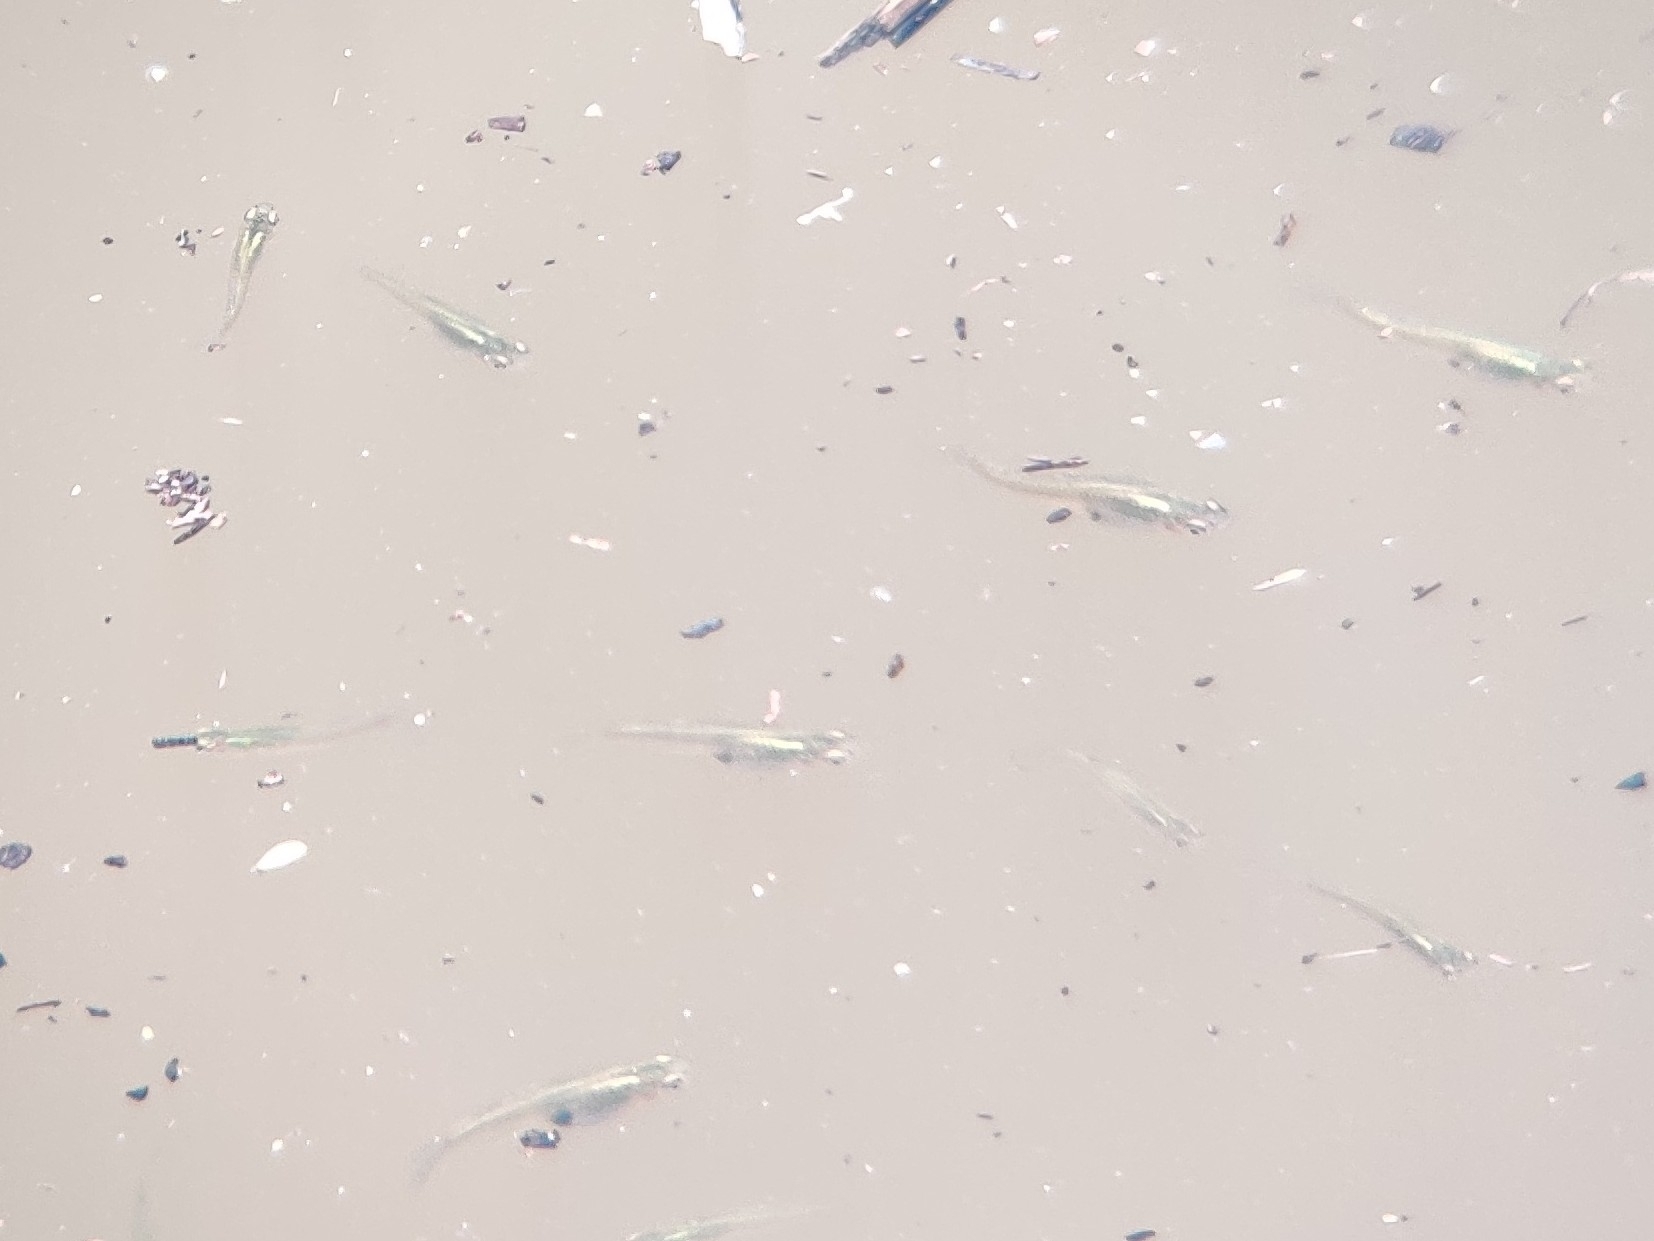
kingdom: Animalia
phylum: Chordata
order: Cyprinodontiformes
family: Poeciliidae
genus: Gambusia
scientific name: Gambusia holbrooki
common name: Eastern mosquitofish
